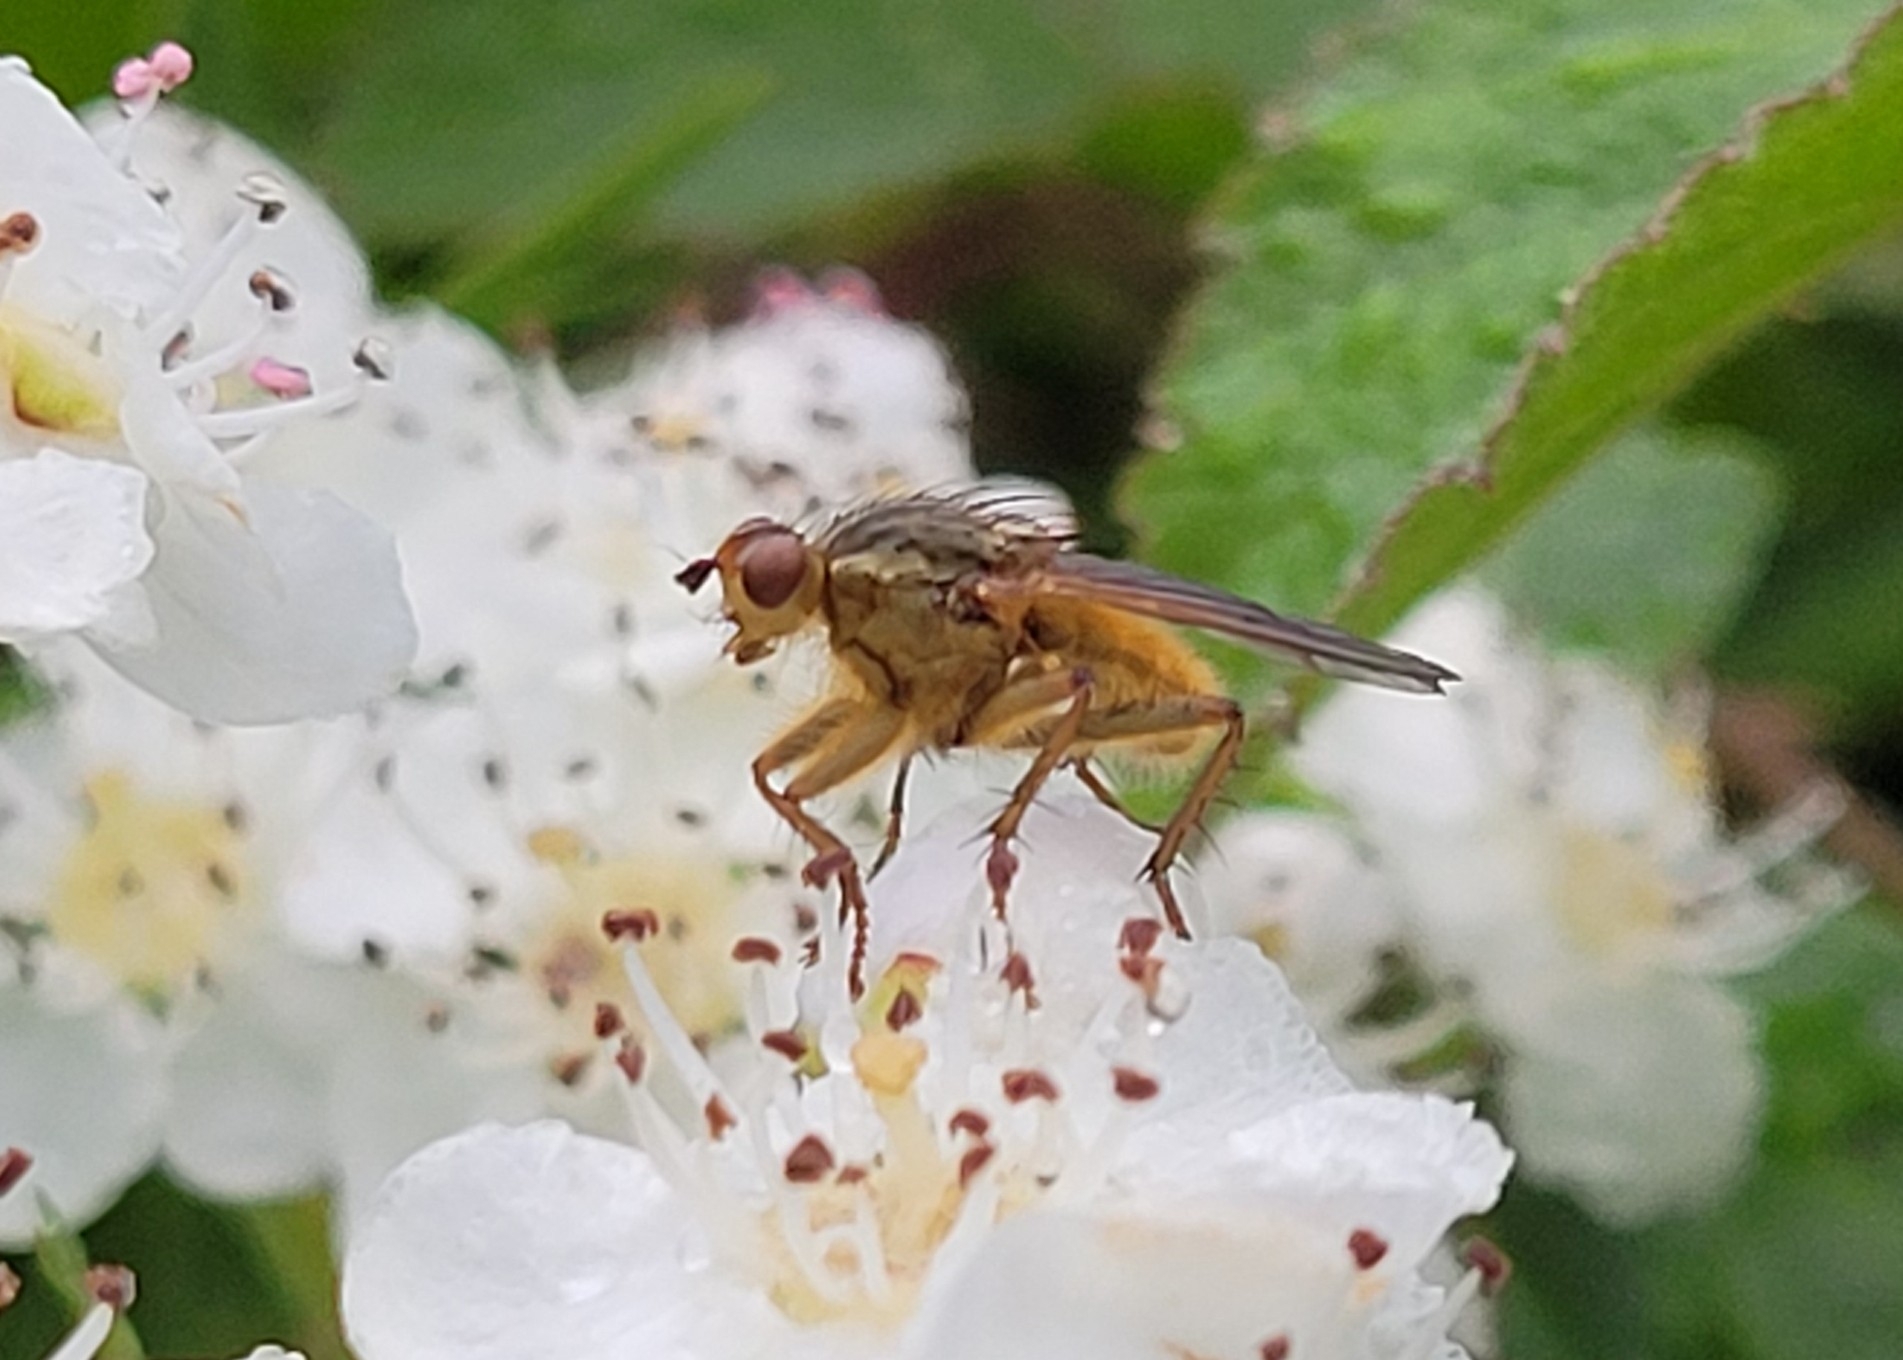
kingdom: Animalia
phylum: Arthropoda
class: Insecta
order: Diptera
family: Scathophagidae
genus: Scathophaga
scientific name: Scathophaga stercoraria
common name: Yellow dung fly
